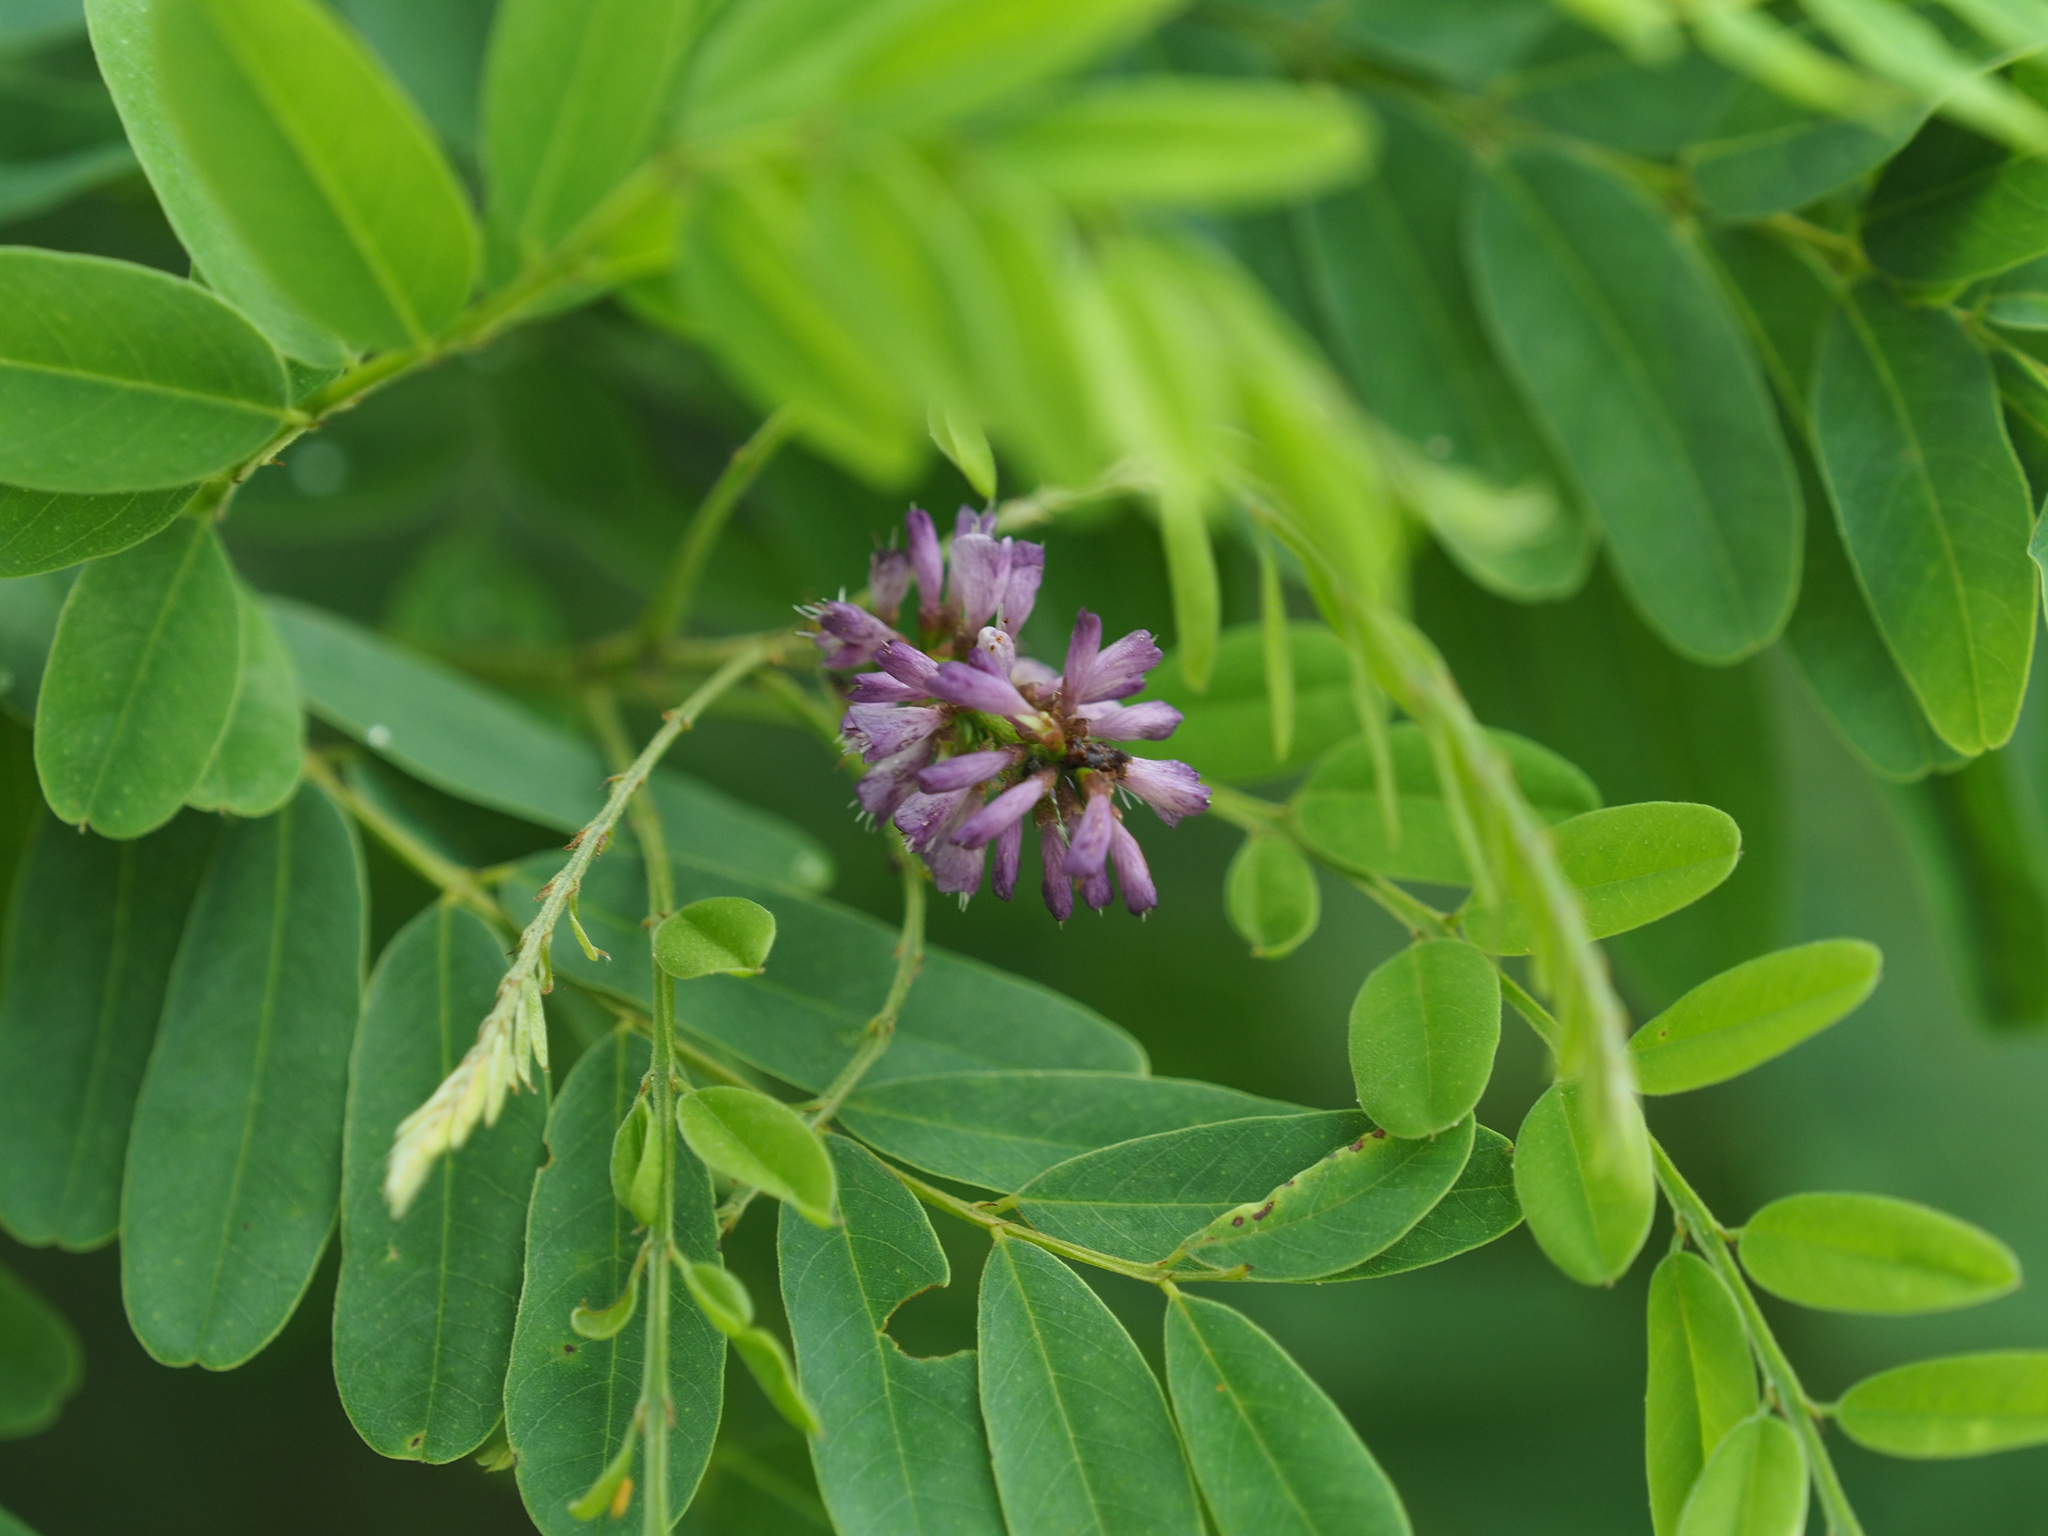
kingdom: Plantae
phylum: Tracheophyta
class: Magnoliopsida
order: Fabales
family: Fabaceae
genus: Amorpha
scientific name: Amorpha fruticosa
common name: False indigo
